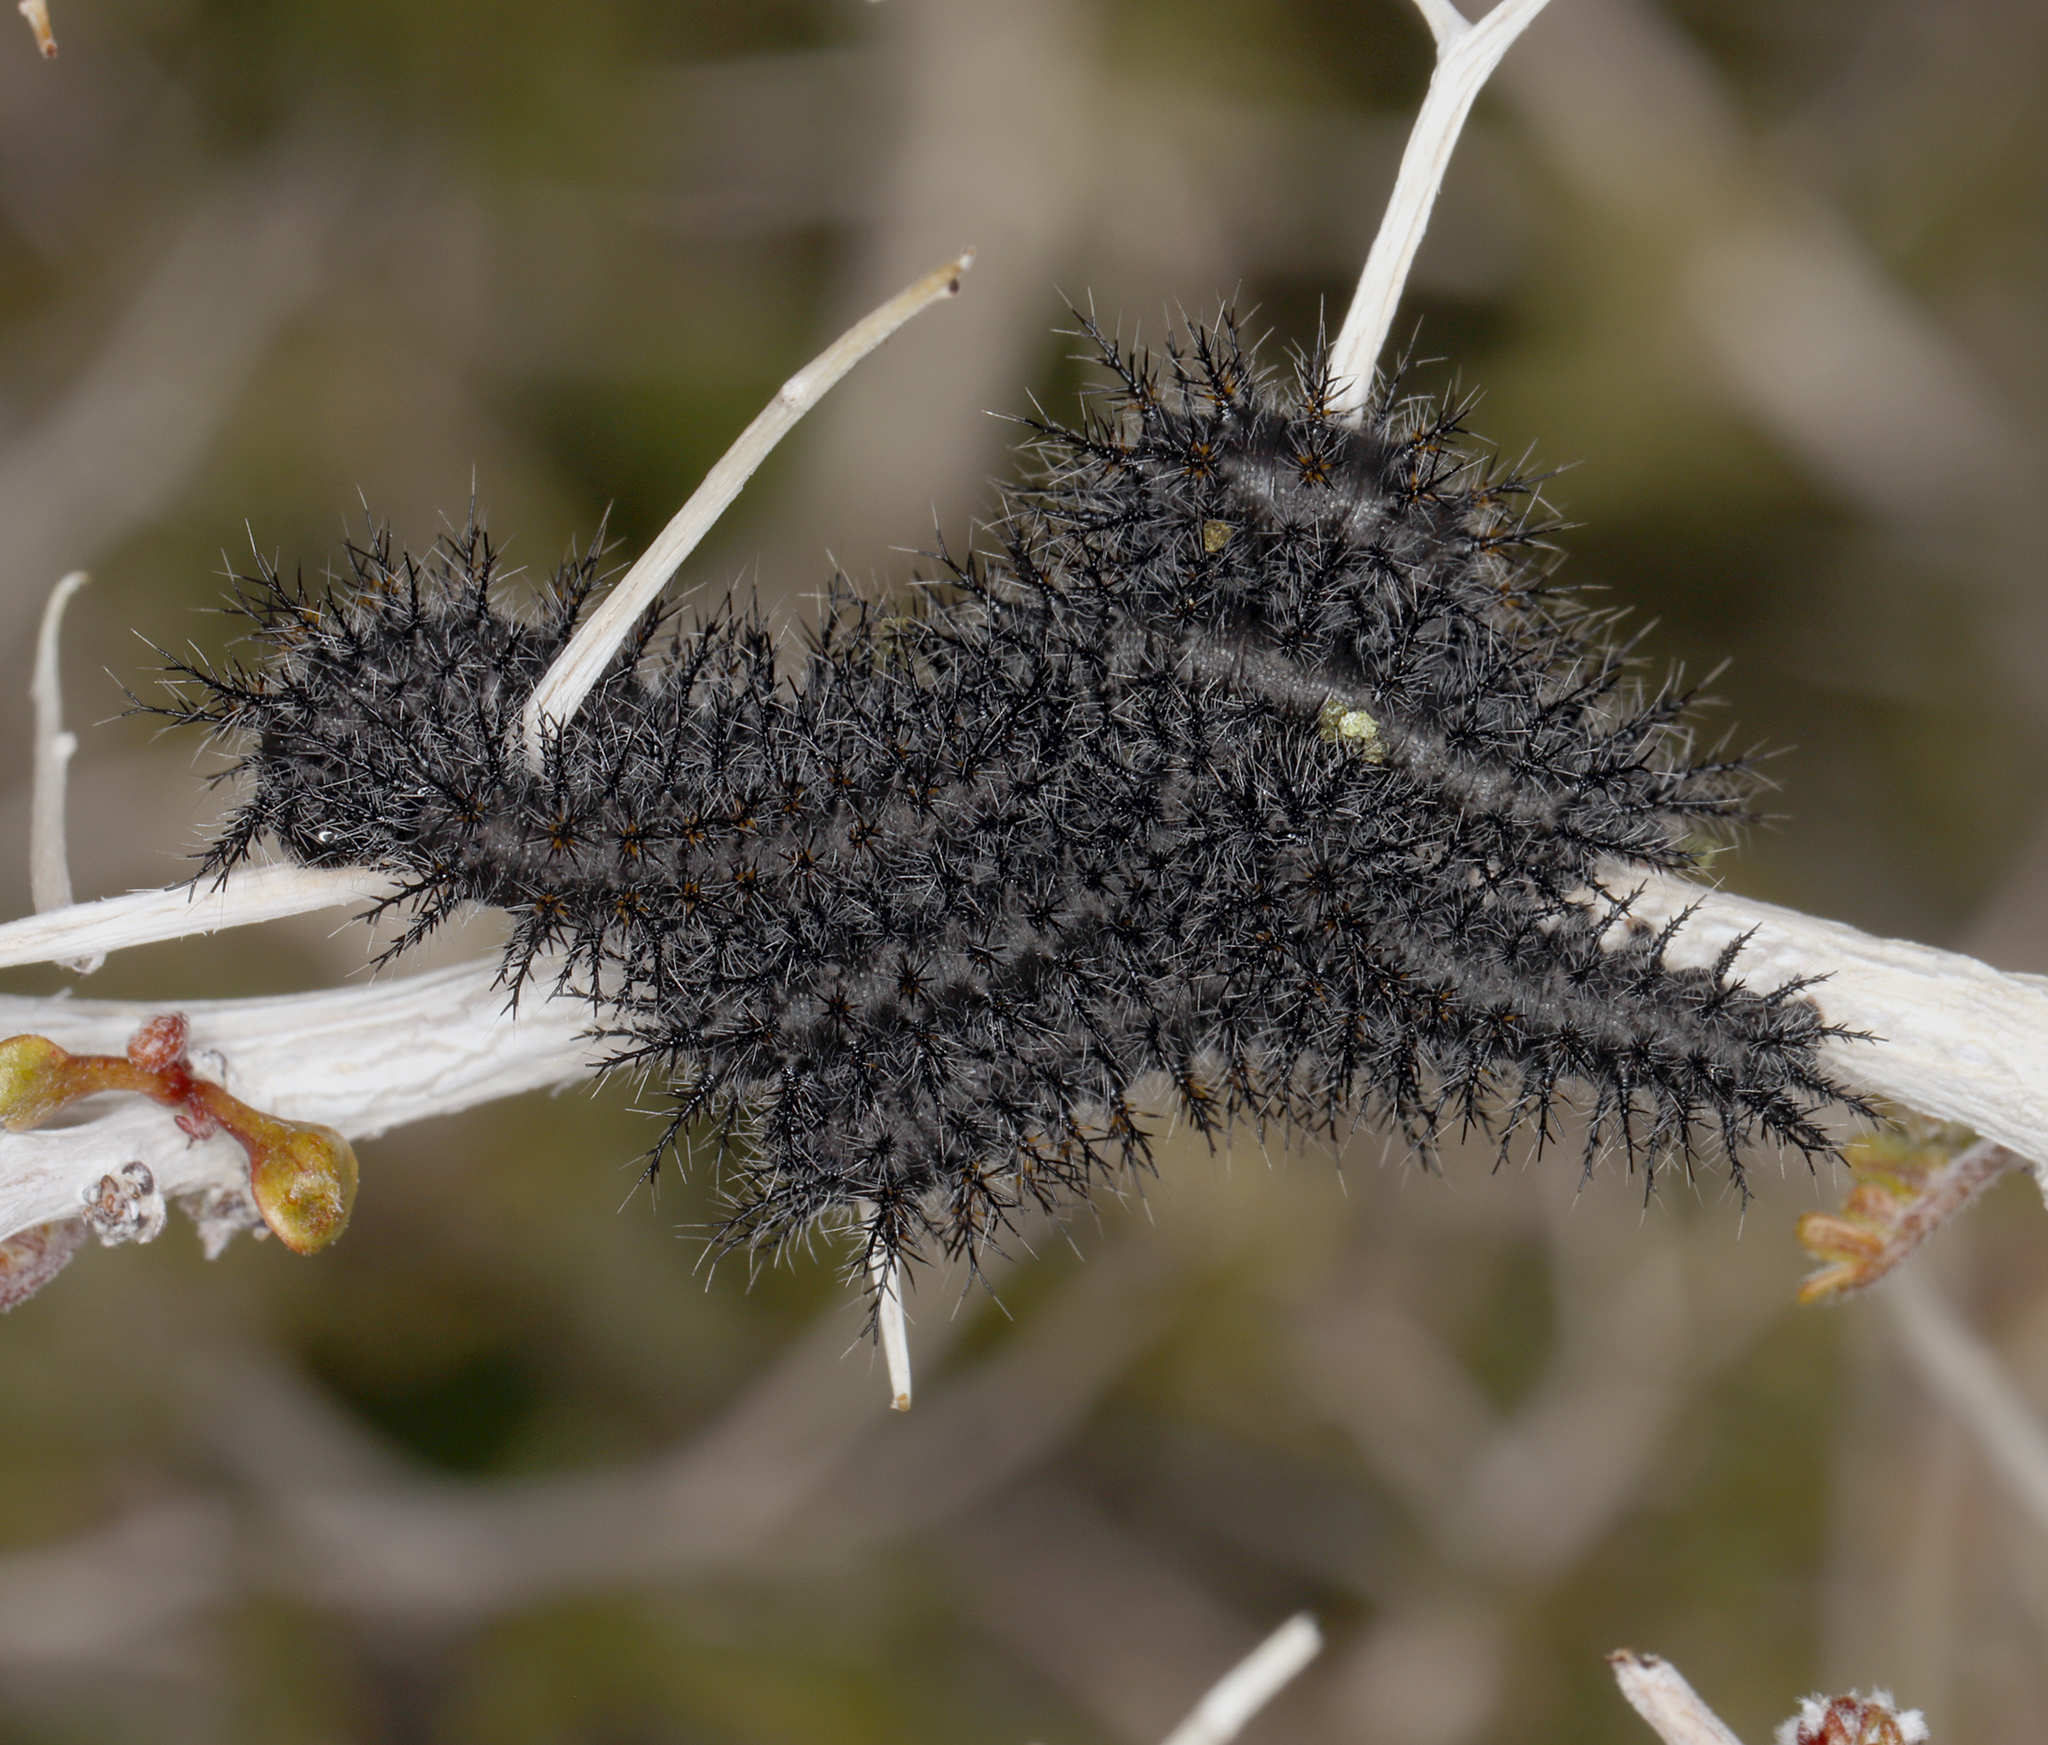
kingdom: Animalia
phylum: Arthropoda
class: Insecta
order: Lepidoptera
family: Saturniidae
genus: Hemileuca
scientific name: Hemileuca burnsi
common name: Burns' buckmoth
